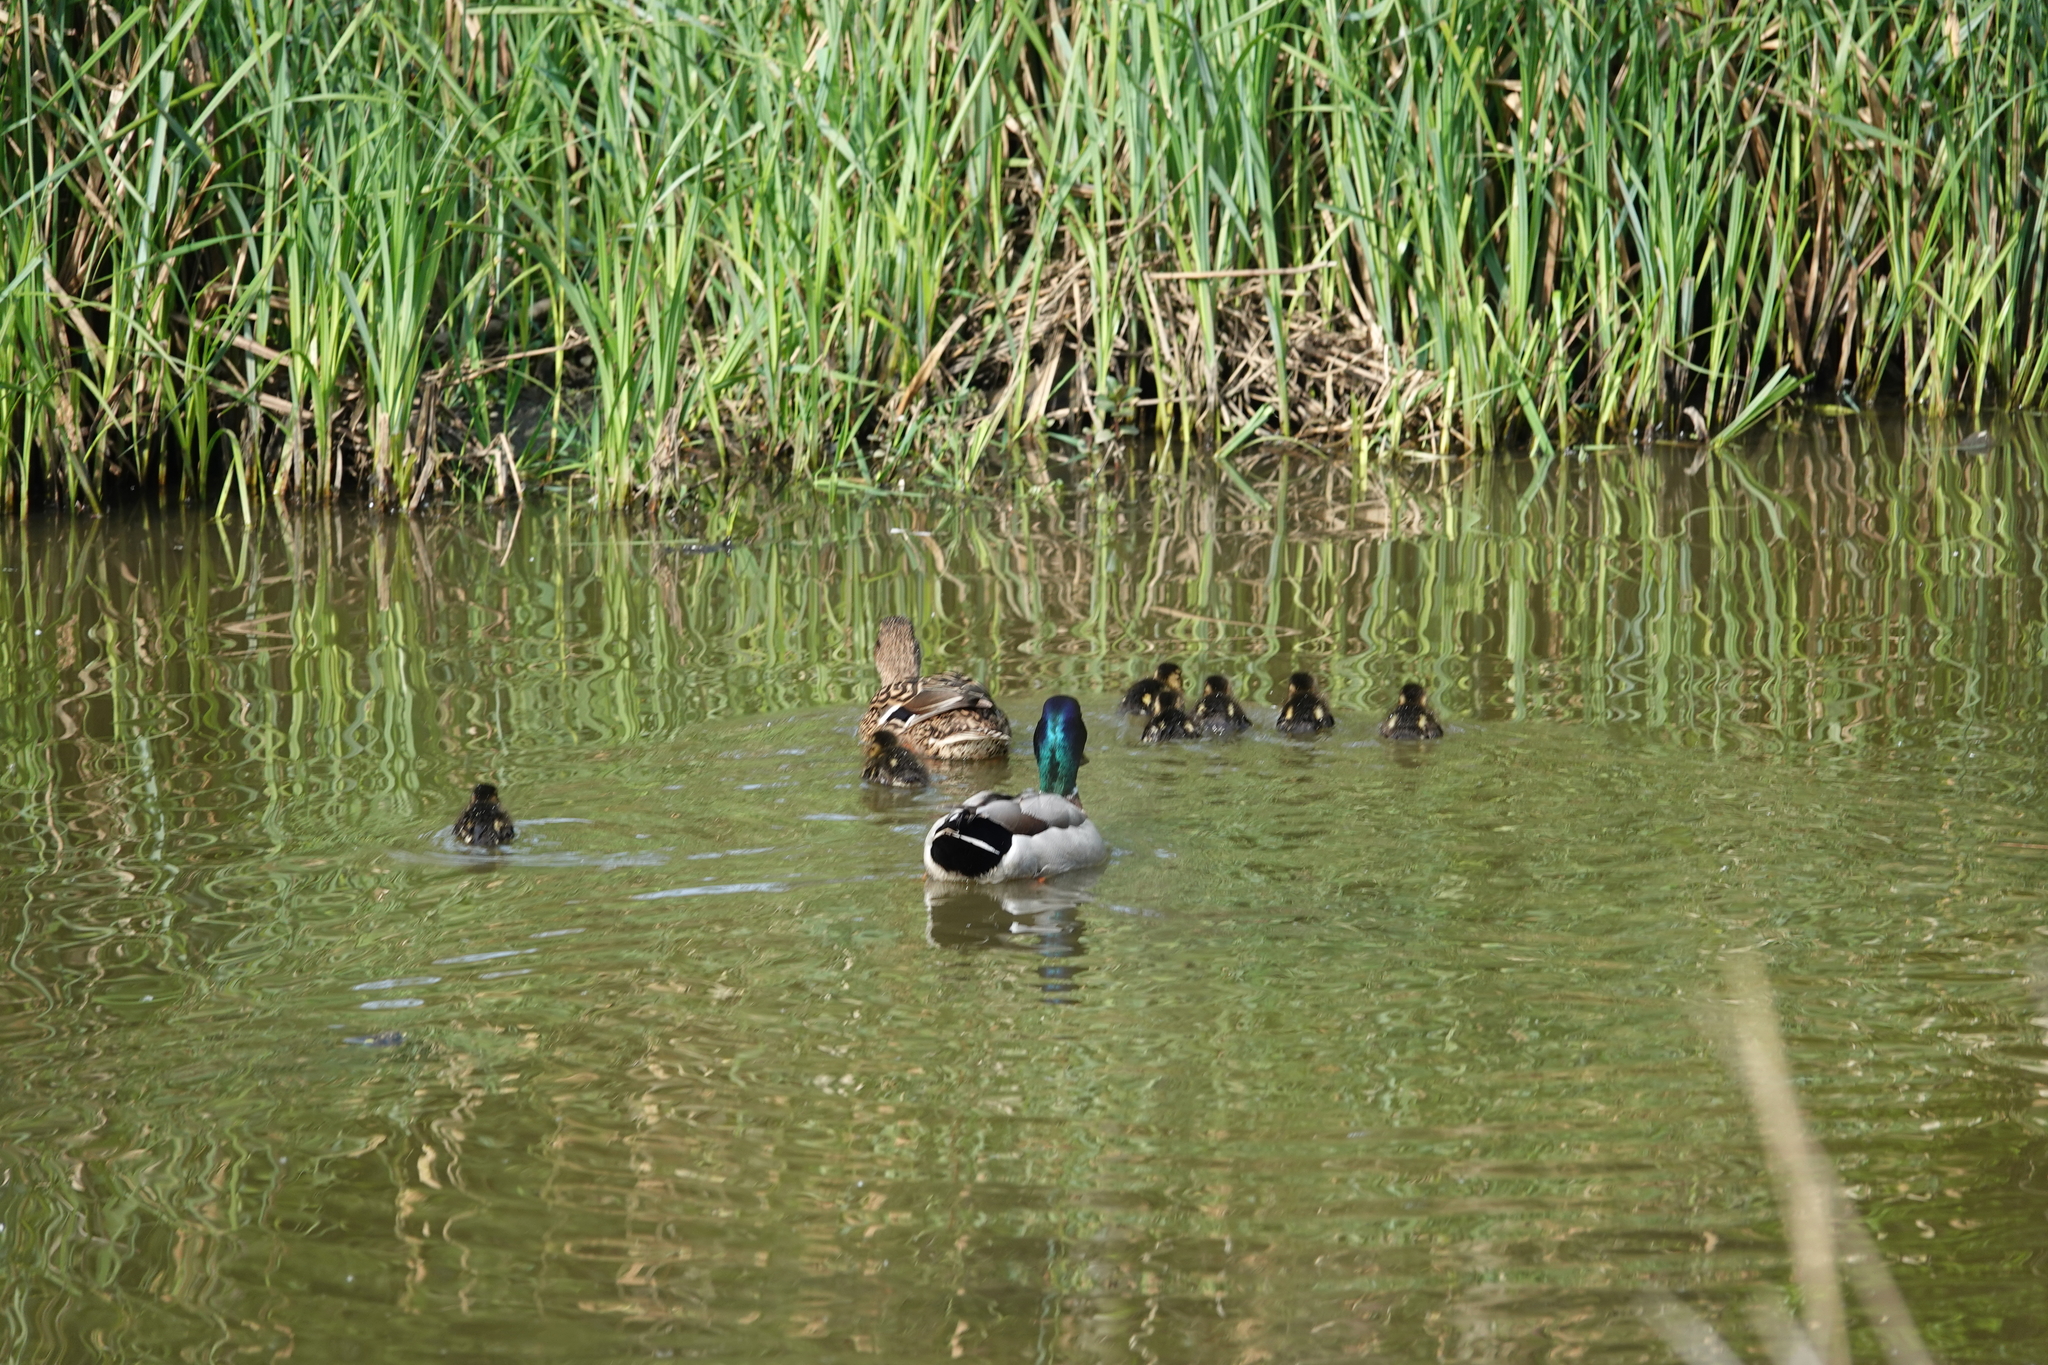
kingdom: Animalia
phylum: Chordata
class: Aves
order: Anseriformes
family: Anatidae
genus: Anas
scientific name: Anas platyrhynchos
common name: Mallard
